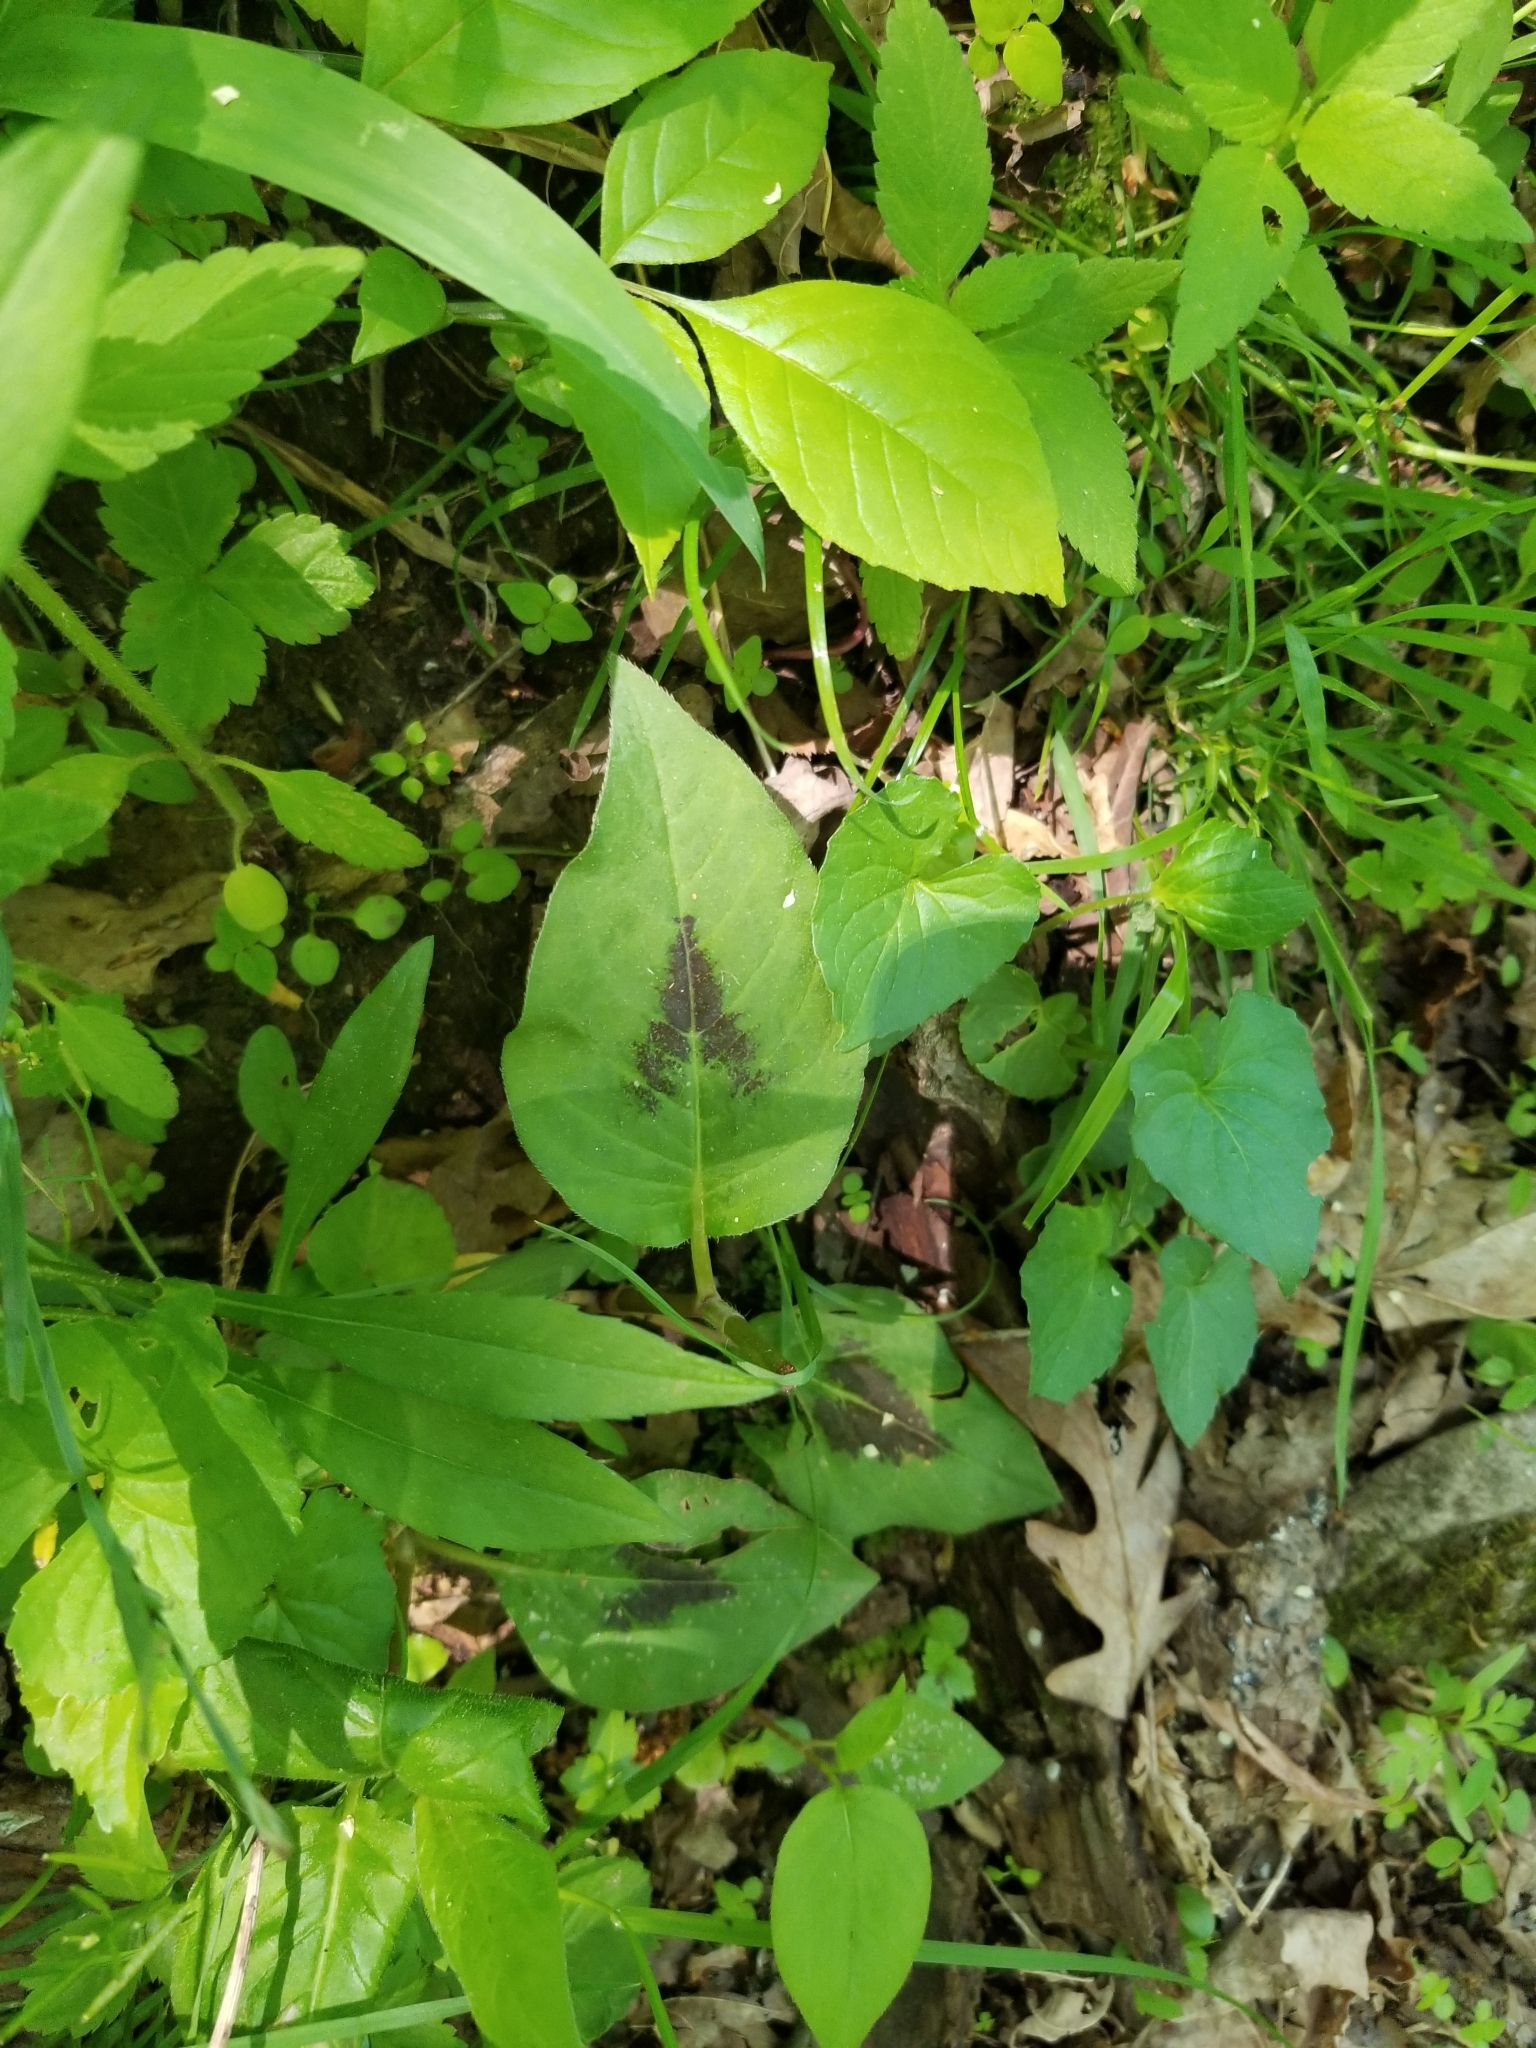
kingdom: Plantae
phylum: Tracheophyta
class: Magnoliopsida
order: Caryophyllales
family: Polygonaceae
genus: Persicaria
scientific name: Persicaria virginiana
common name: Jumpseed
